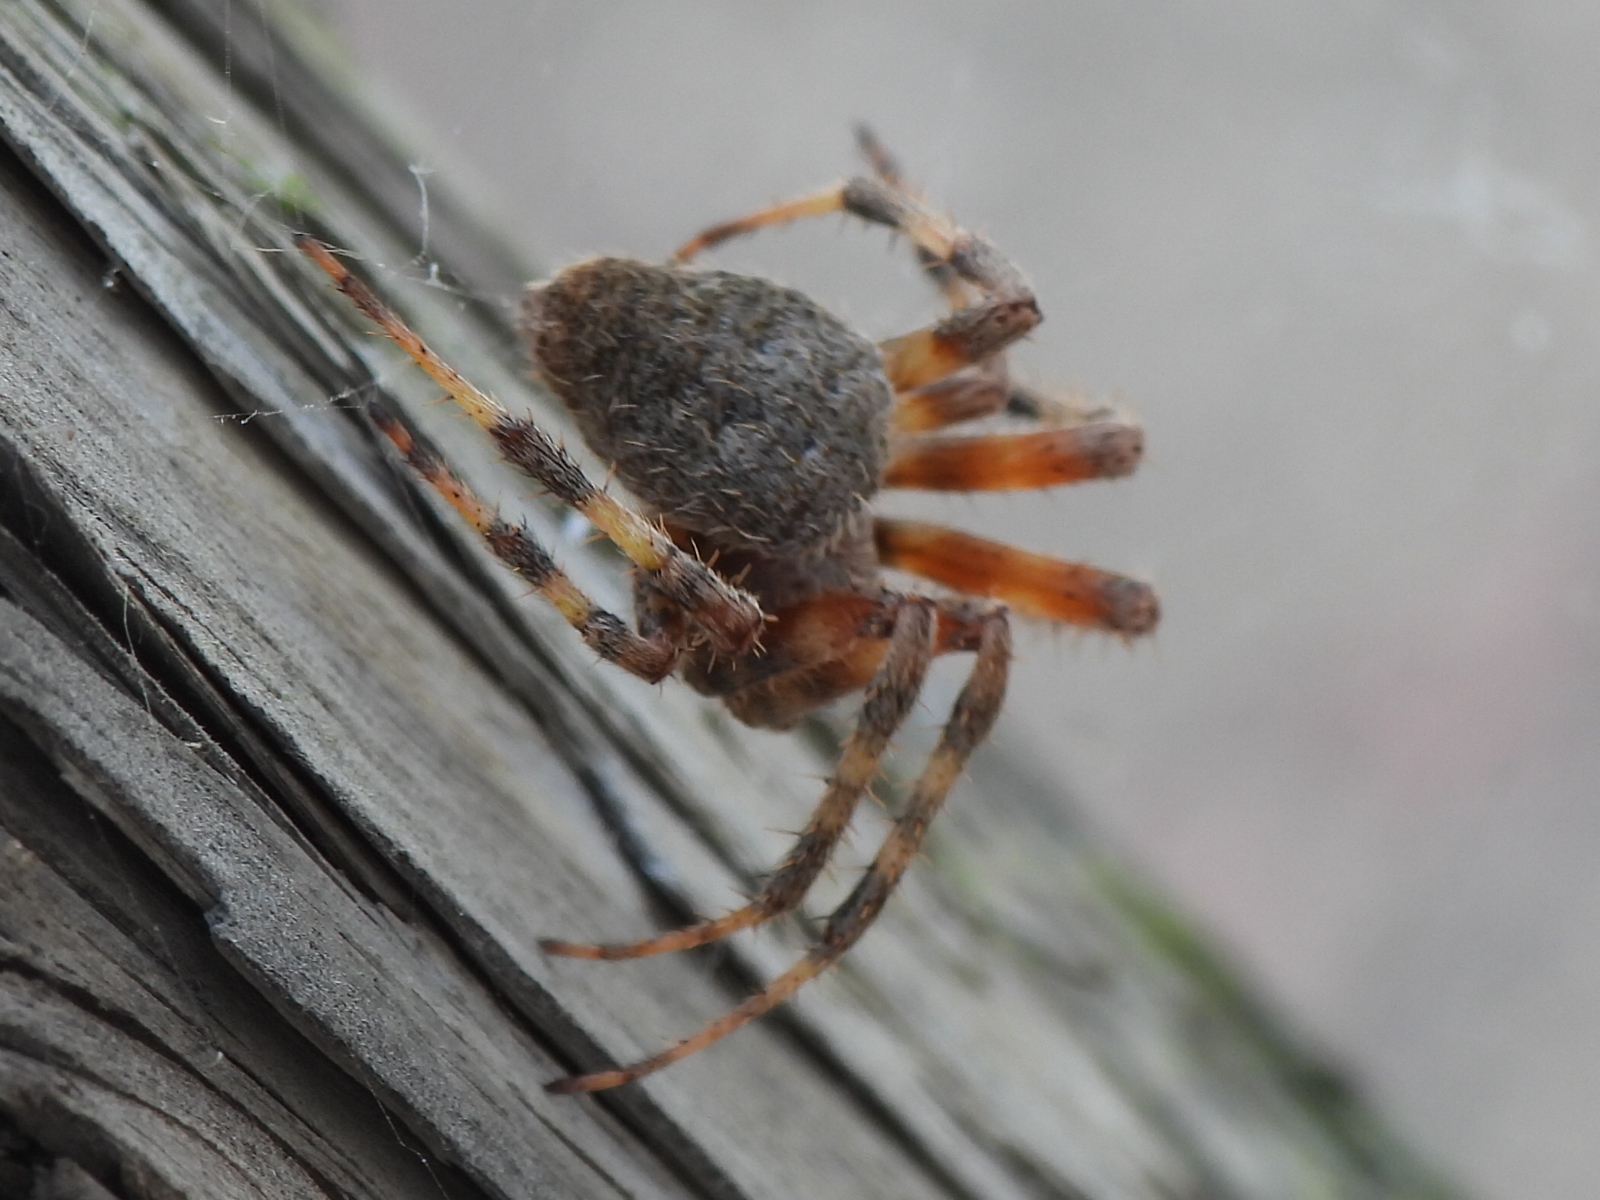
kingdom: Animalia
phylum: Arthropoda
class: Arachnida
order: Araneae
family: Araneidae
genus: Neoscona
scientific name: Neoscona crucifera
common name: Spotted orbweaver
